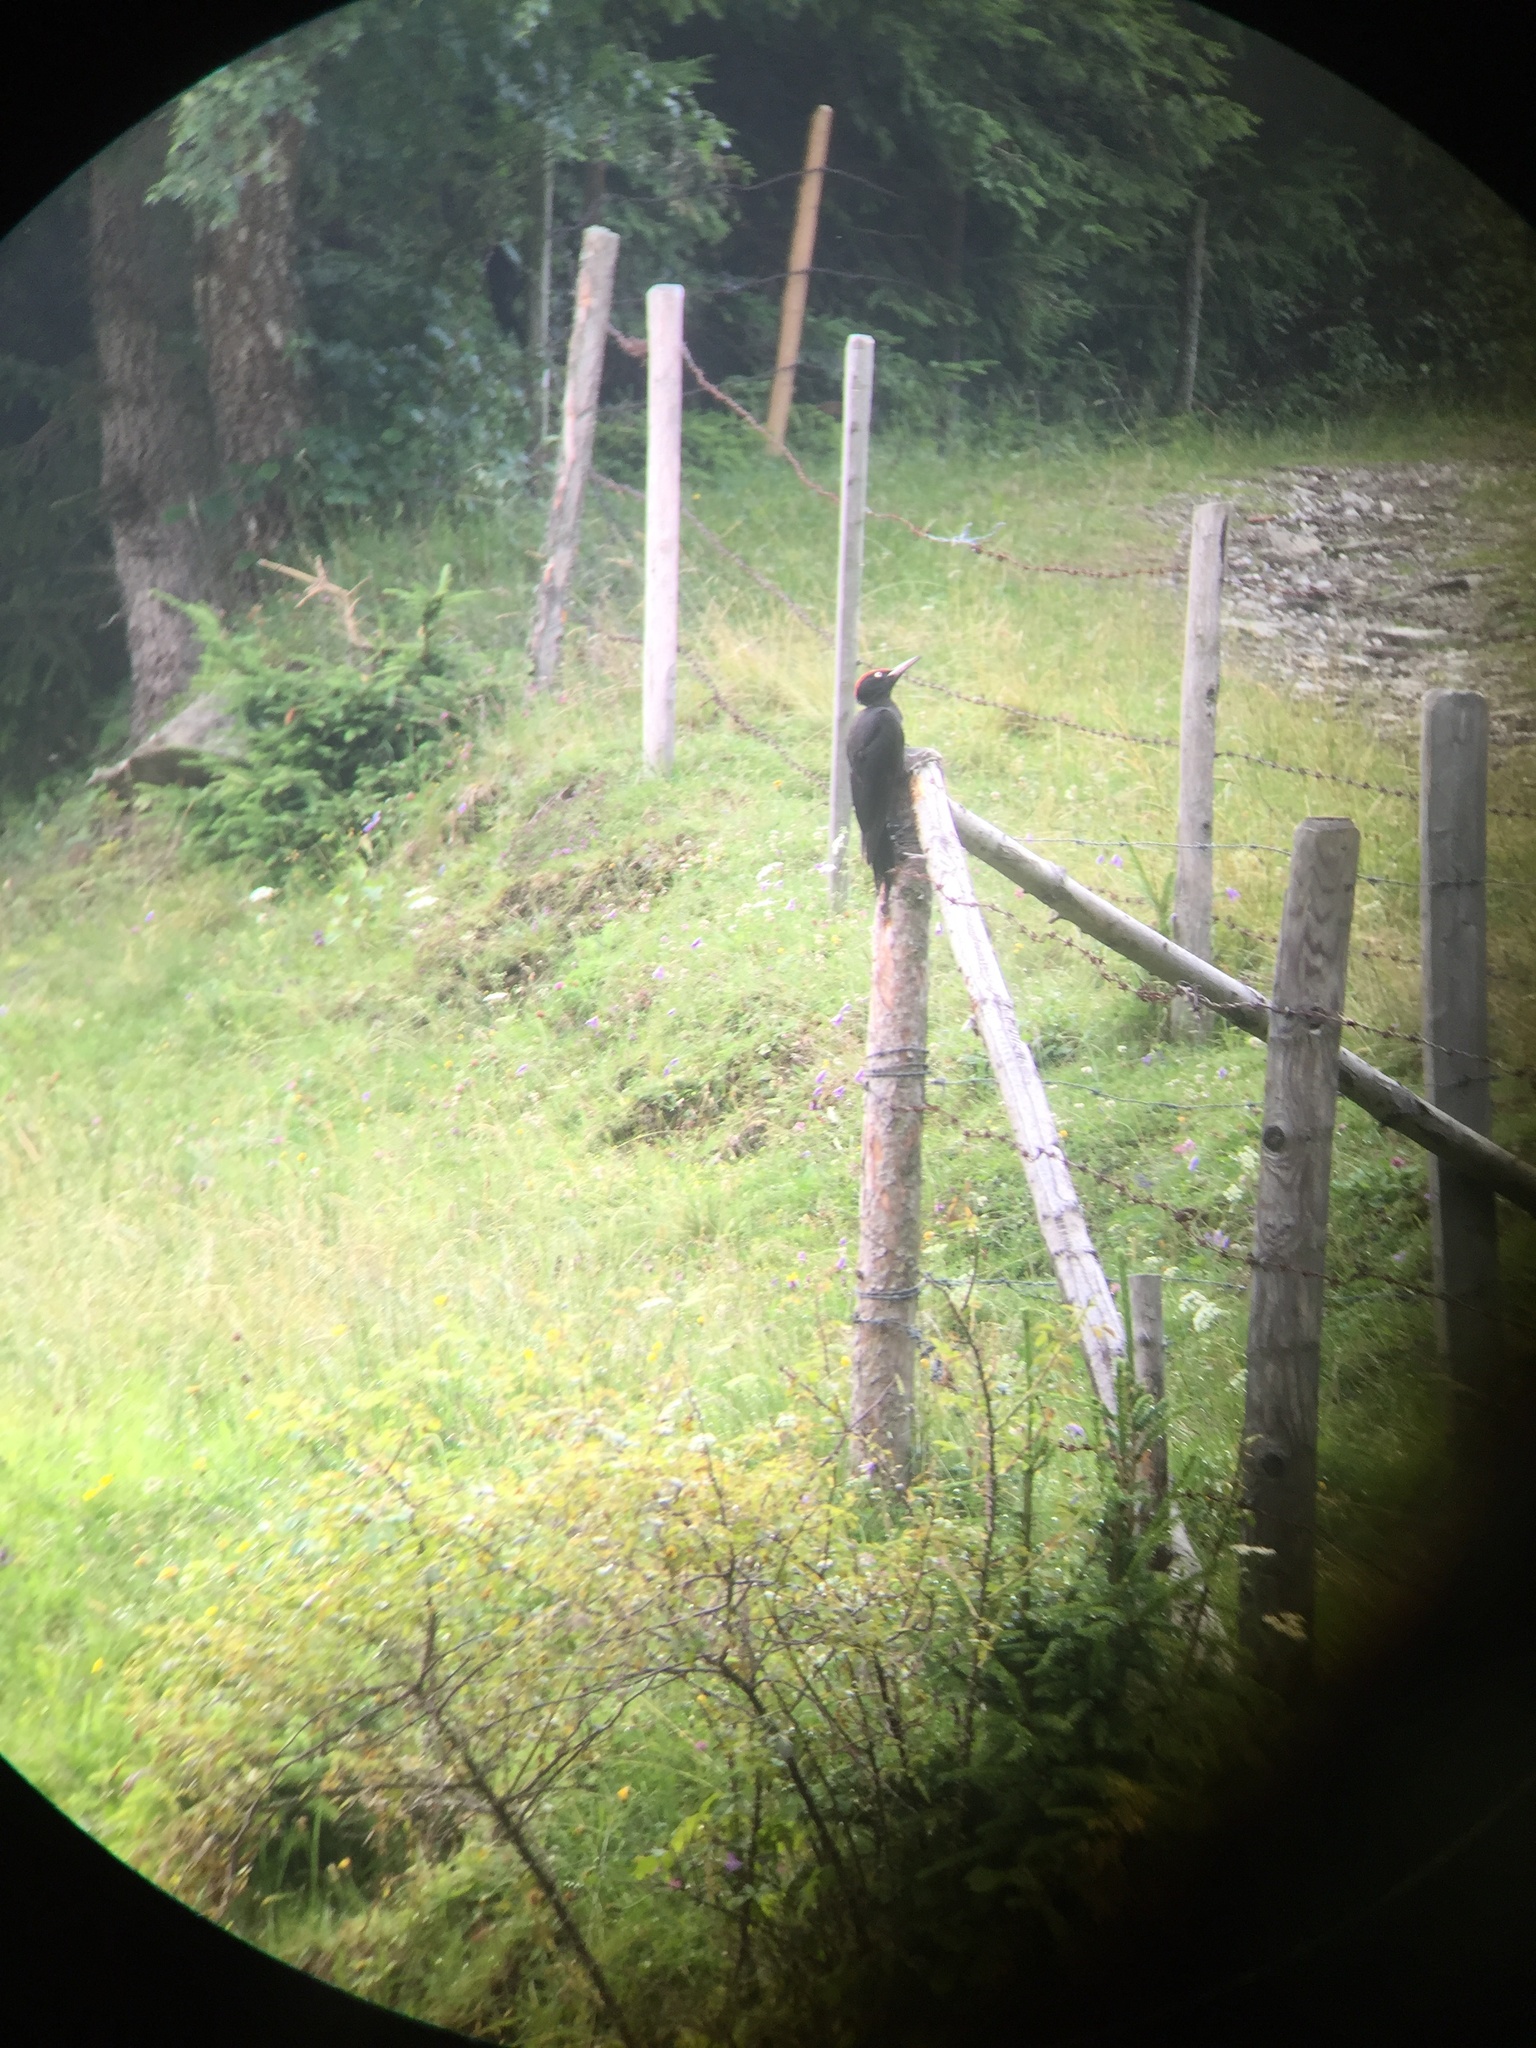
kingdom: Animalia
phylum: Chordata
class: Aves
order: Piciformes
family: Picidae
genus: Dryocopus
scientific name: Dryocopus martius
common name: Black woodpecker
